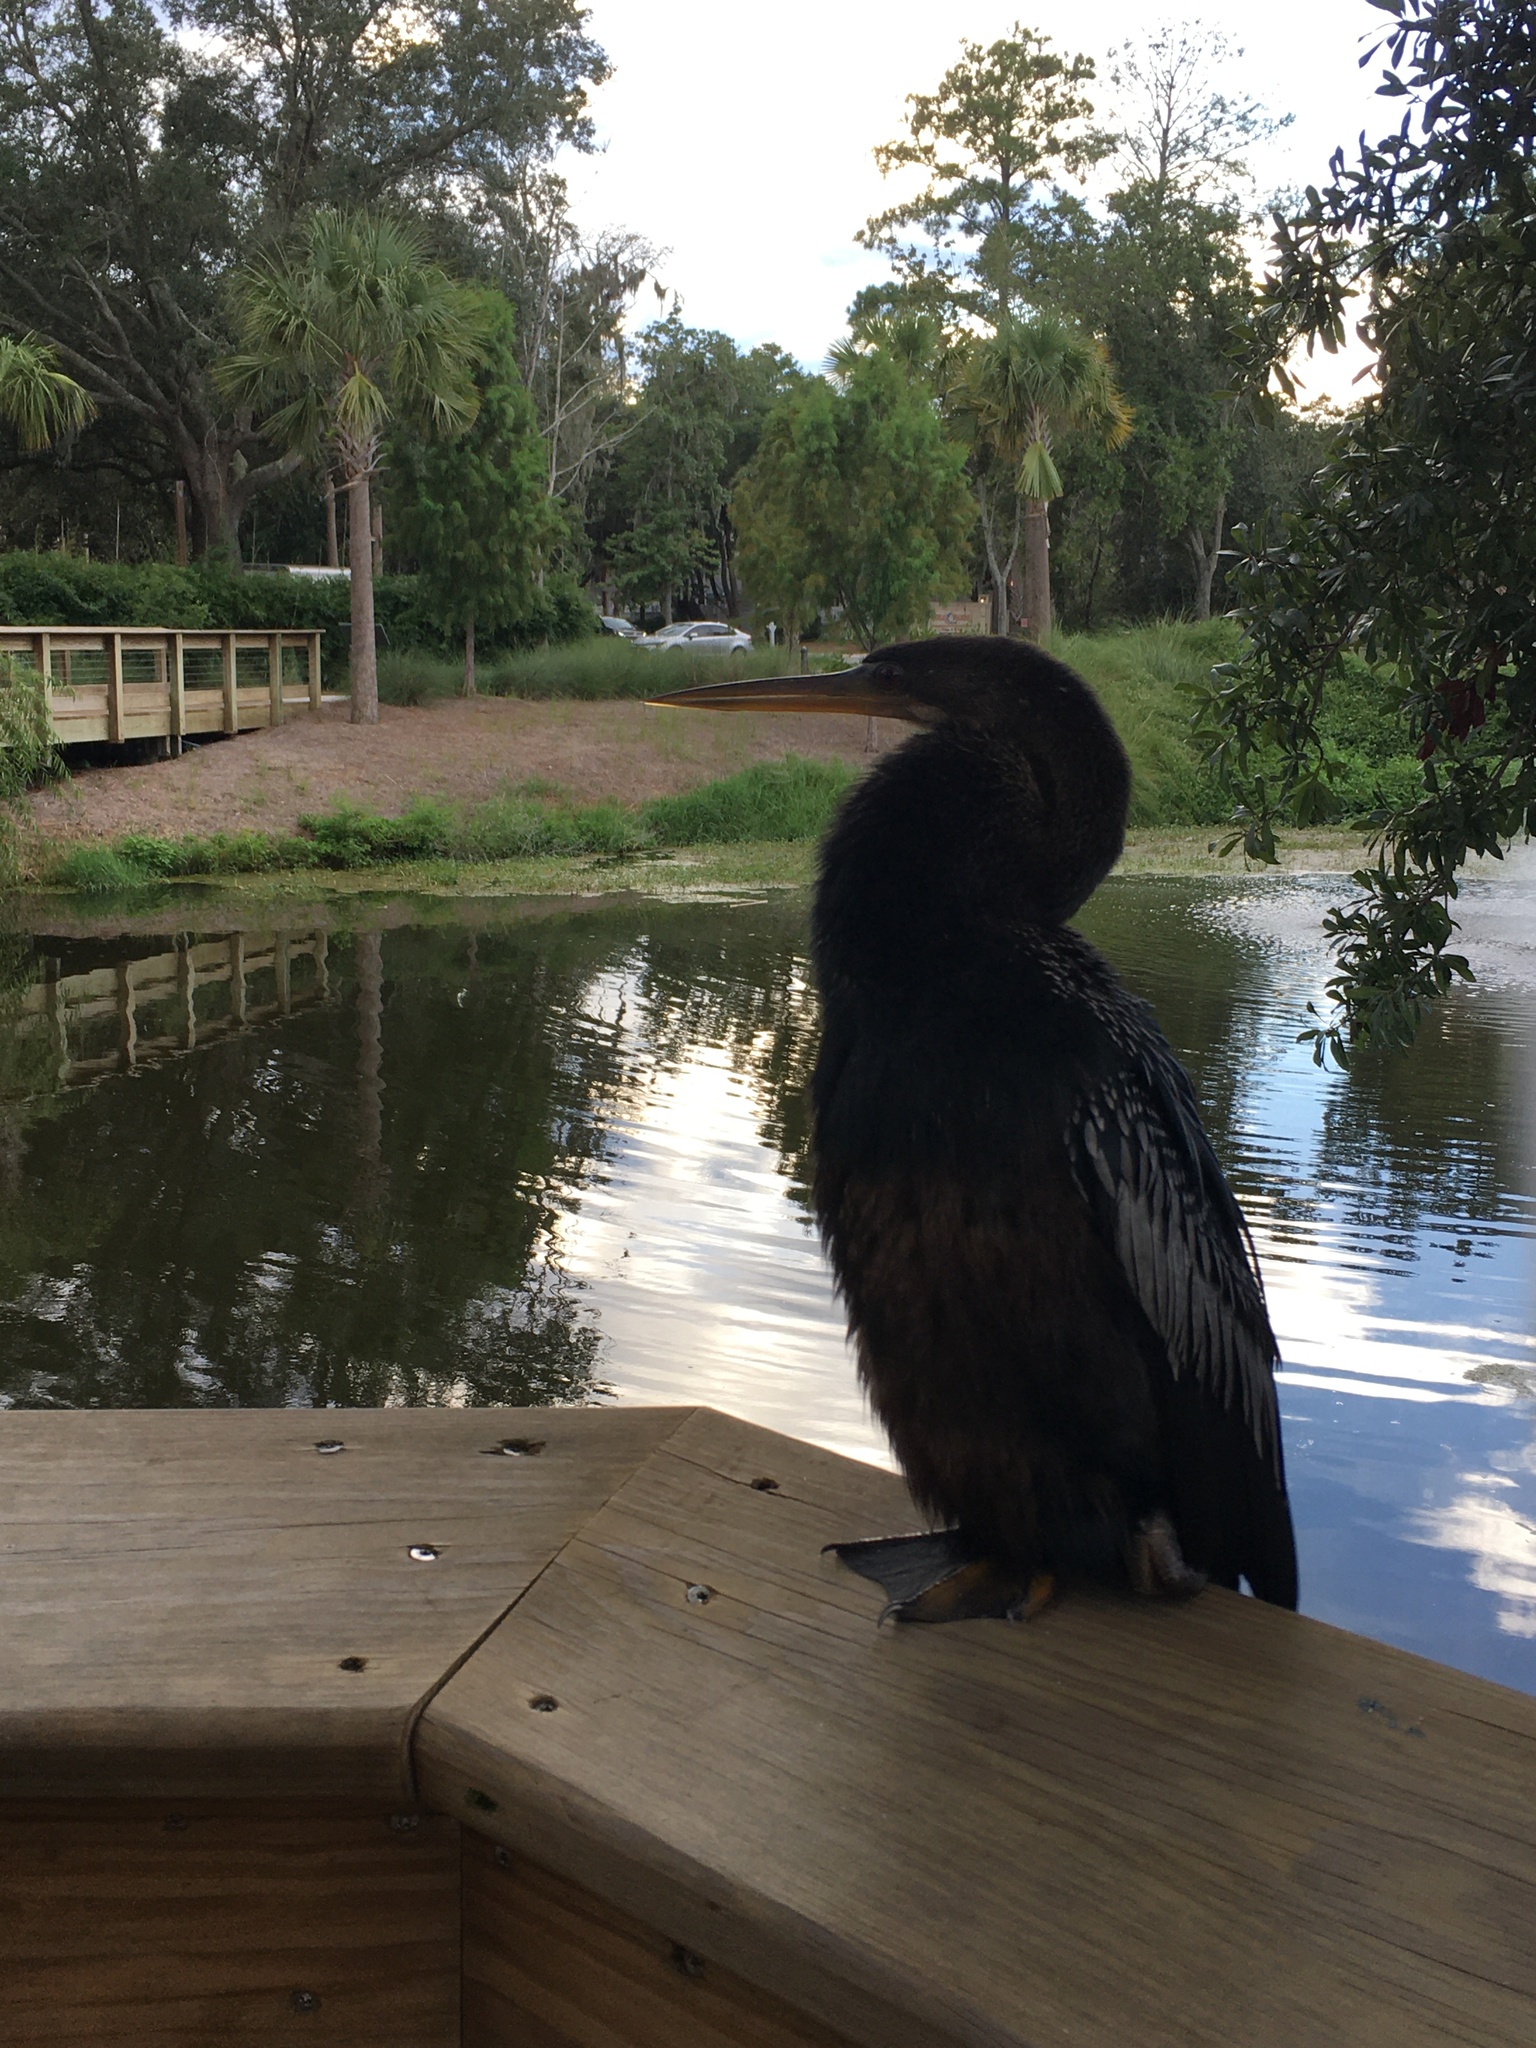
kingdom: Animalia
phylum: Chordata
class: Aves
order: Suliformes
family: Anhingidae
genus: Anhinga
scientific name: Anhinga anhinga
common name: Anhinga
